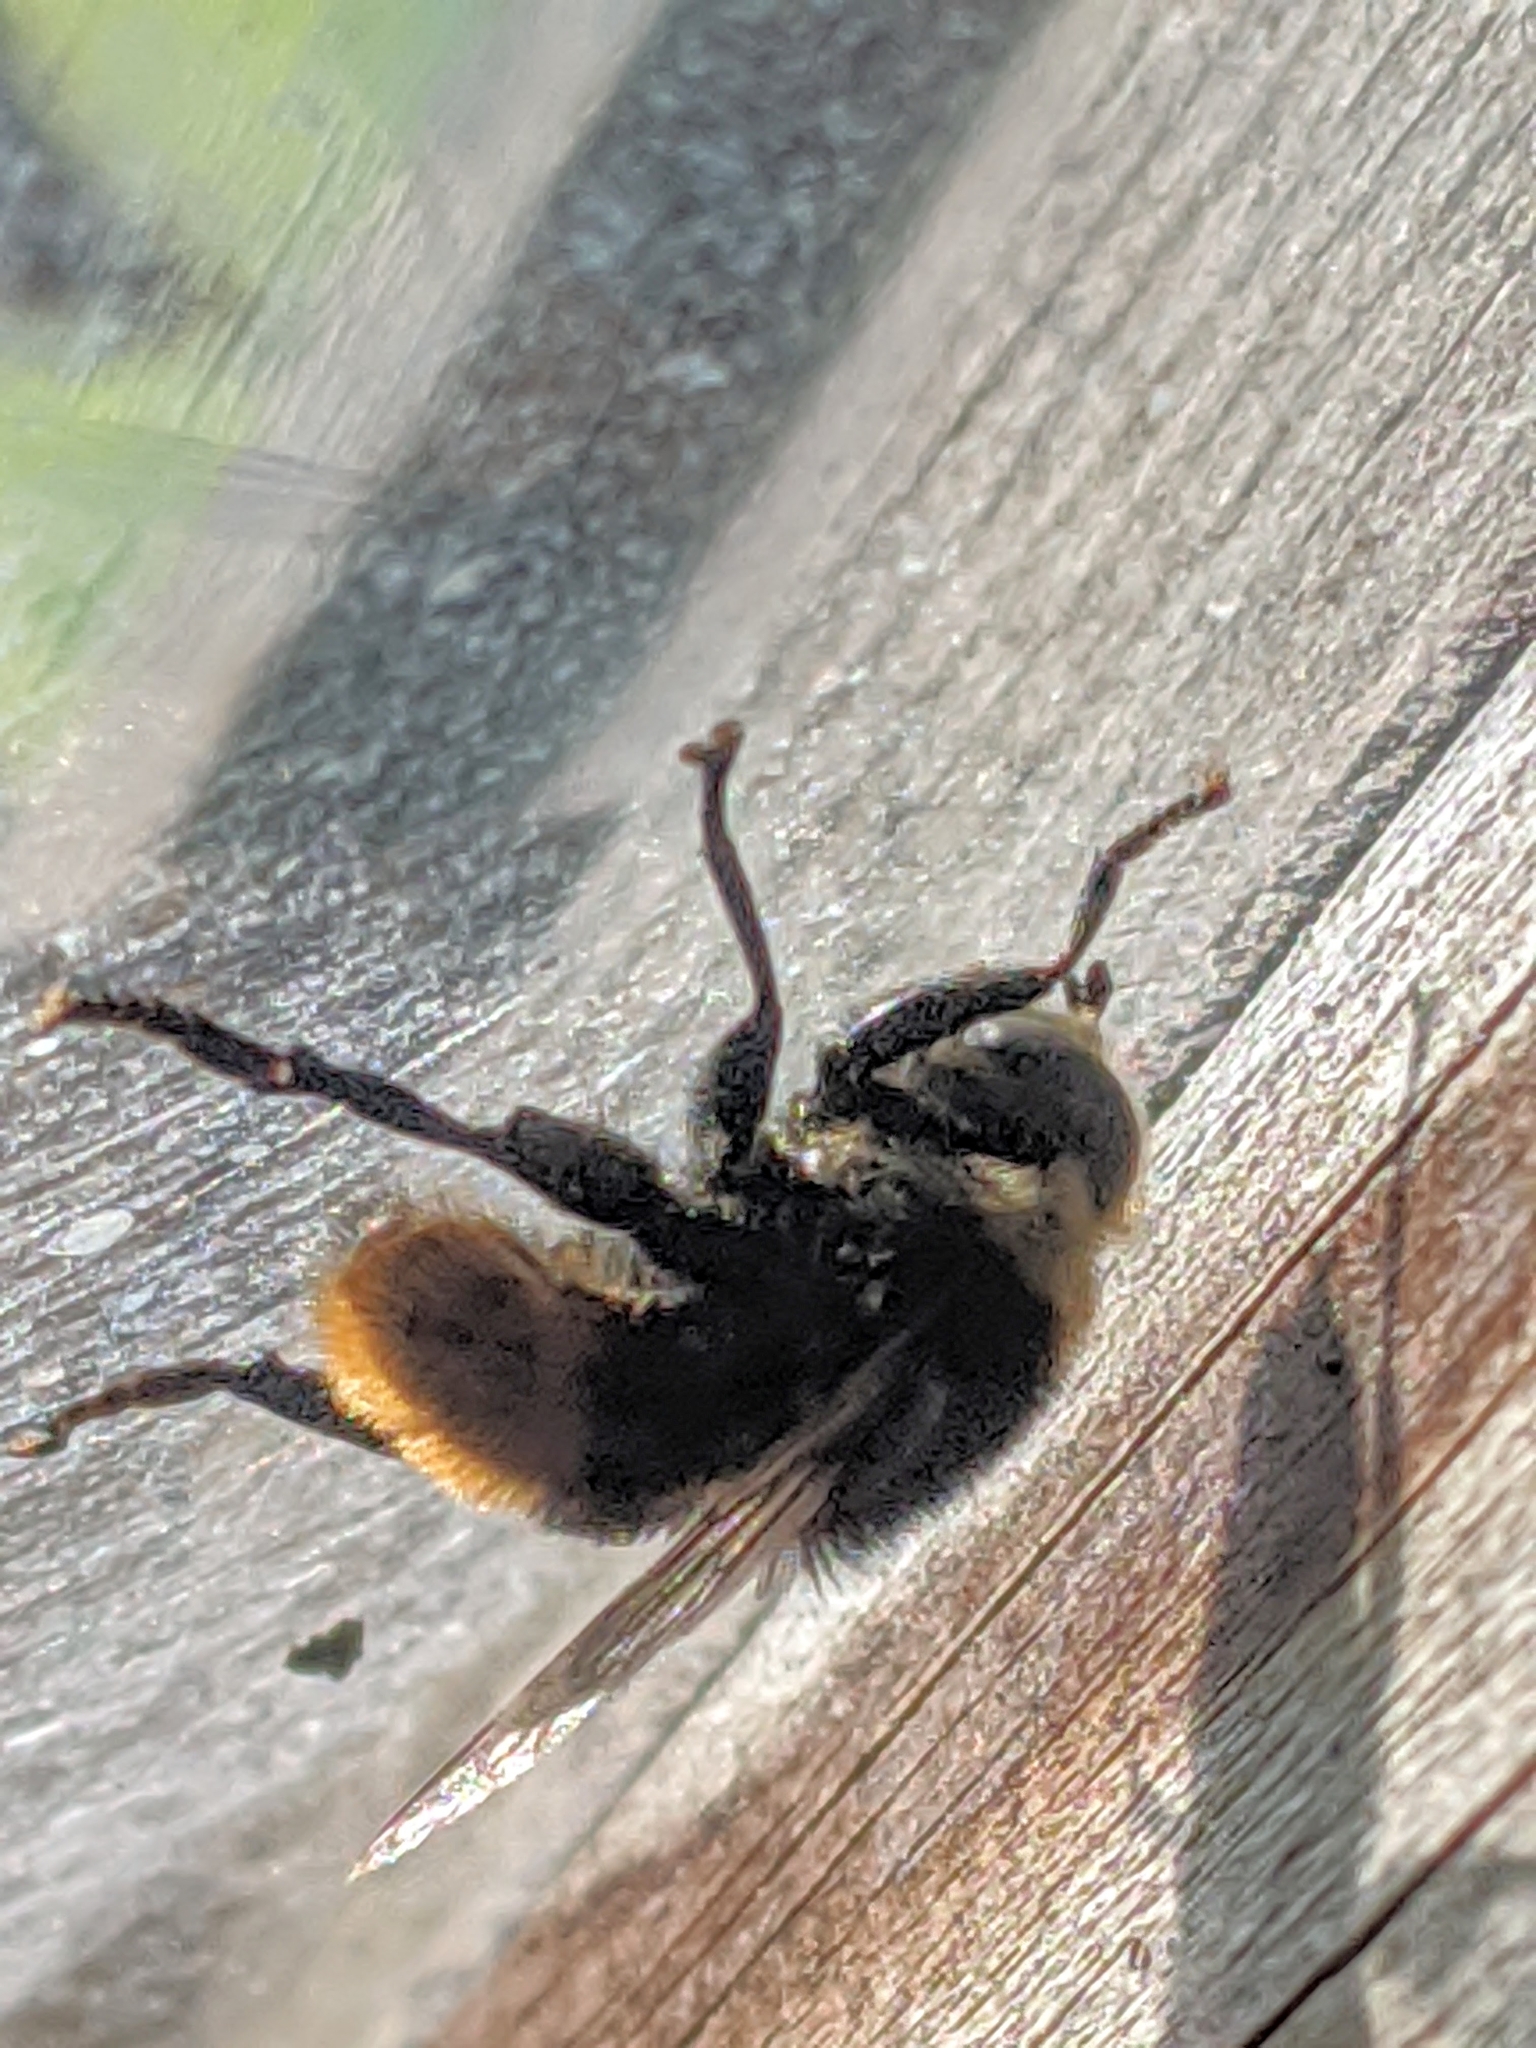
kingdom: Animalia
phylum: Arthropoda
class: Insecta
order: Diptera
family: Syrphidae
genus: Merodon
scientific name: Merodon equestris
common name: Greater bulb-fly
